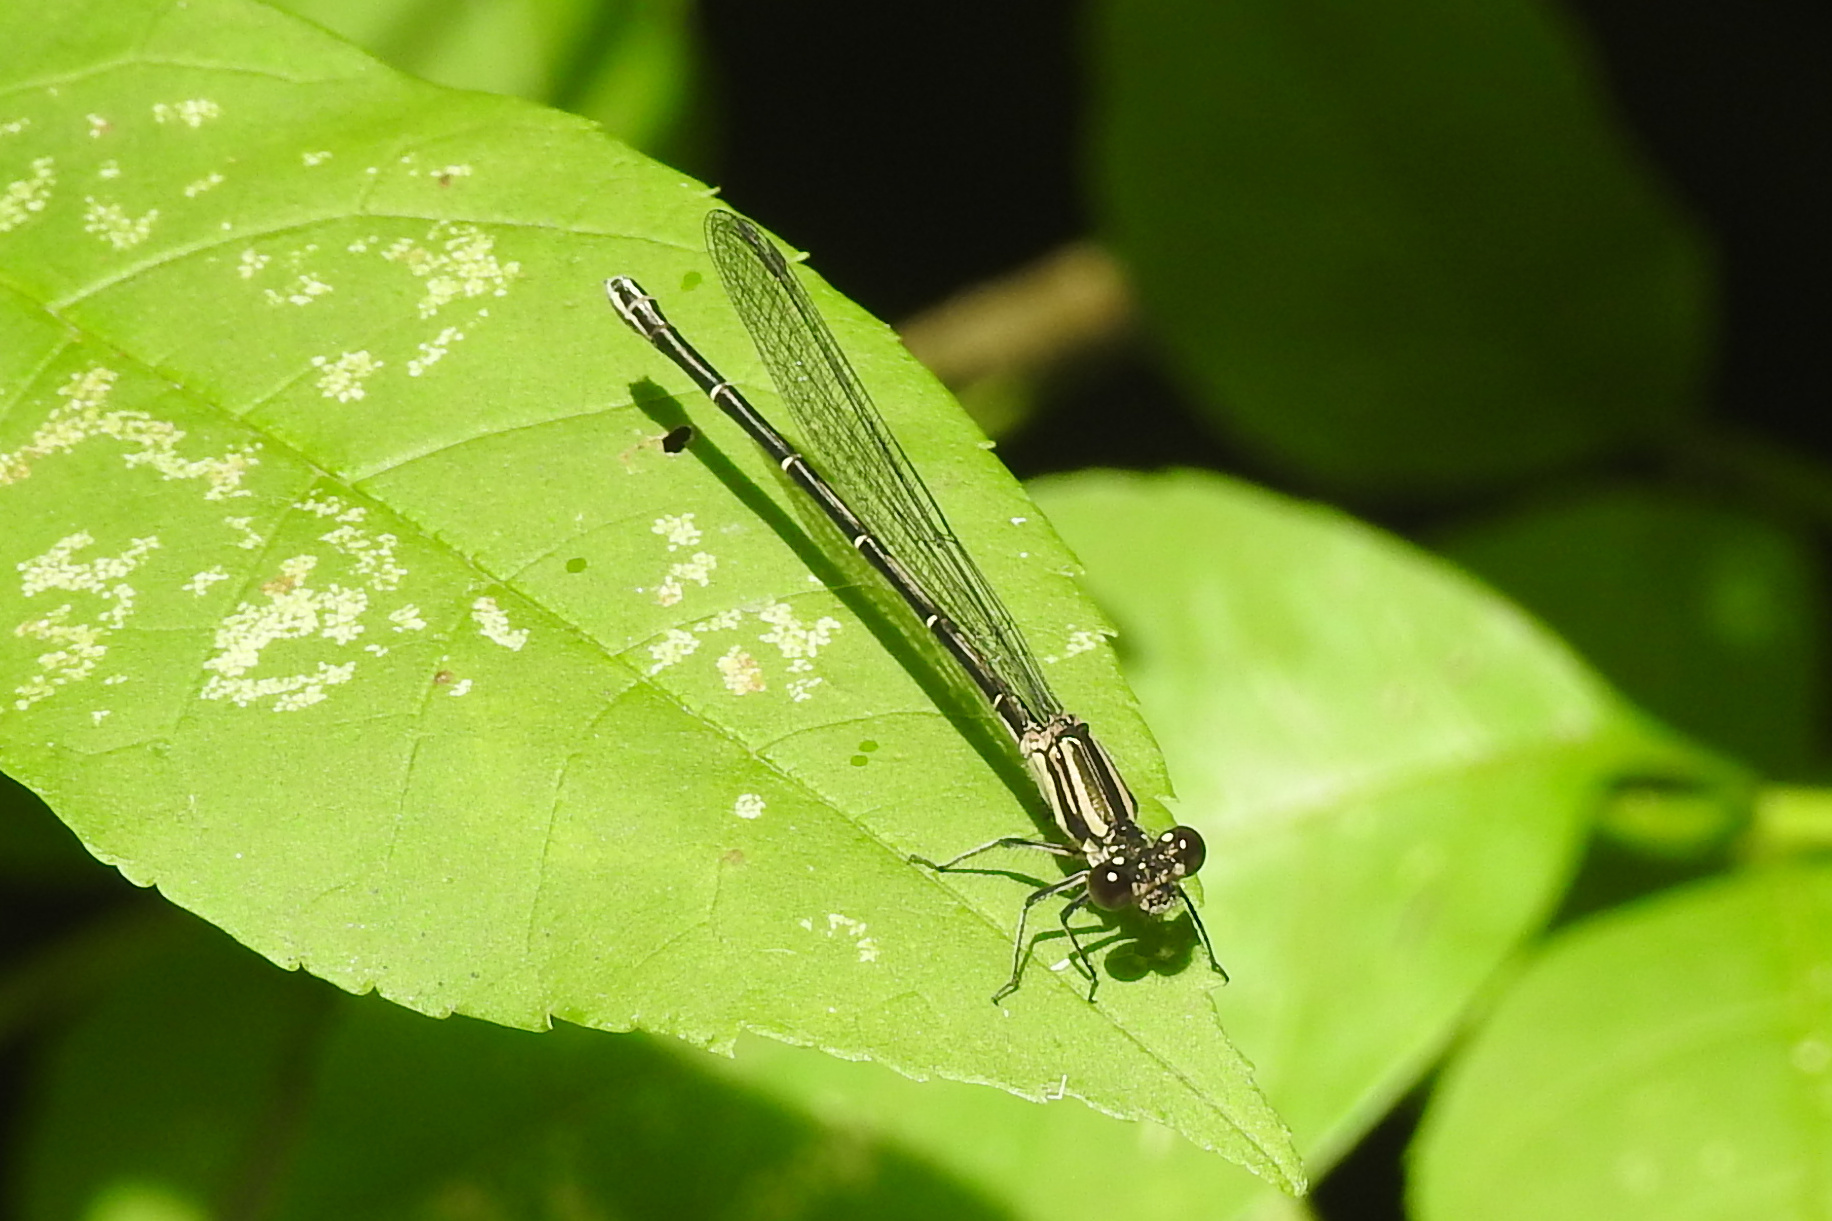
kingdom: Animalia
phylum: Arthropoda
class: Insecta
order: Odonata
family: Coenagrionidae
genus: Argia
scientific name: Argia translata
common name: Dusky dancer
